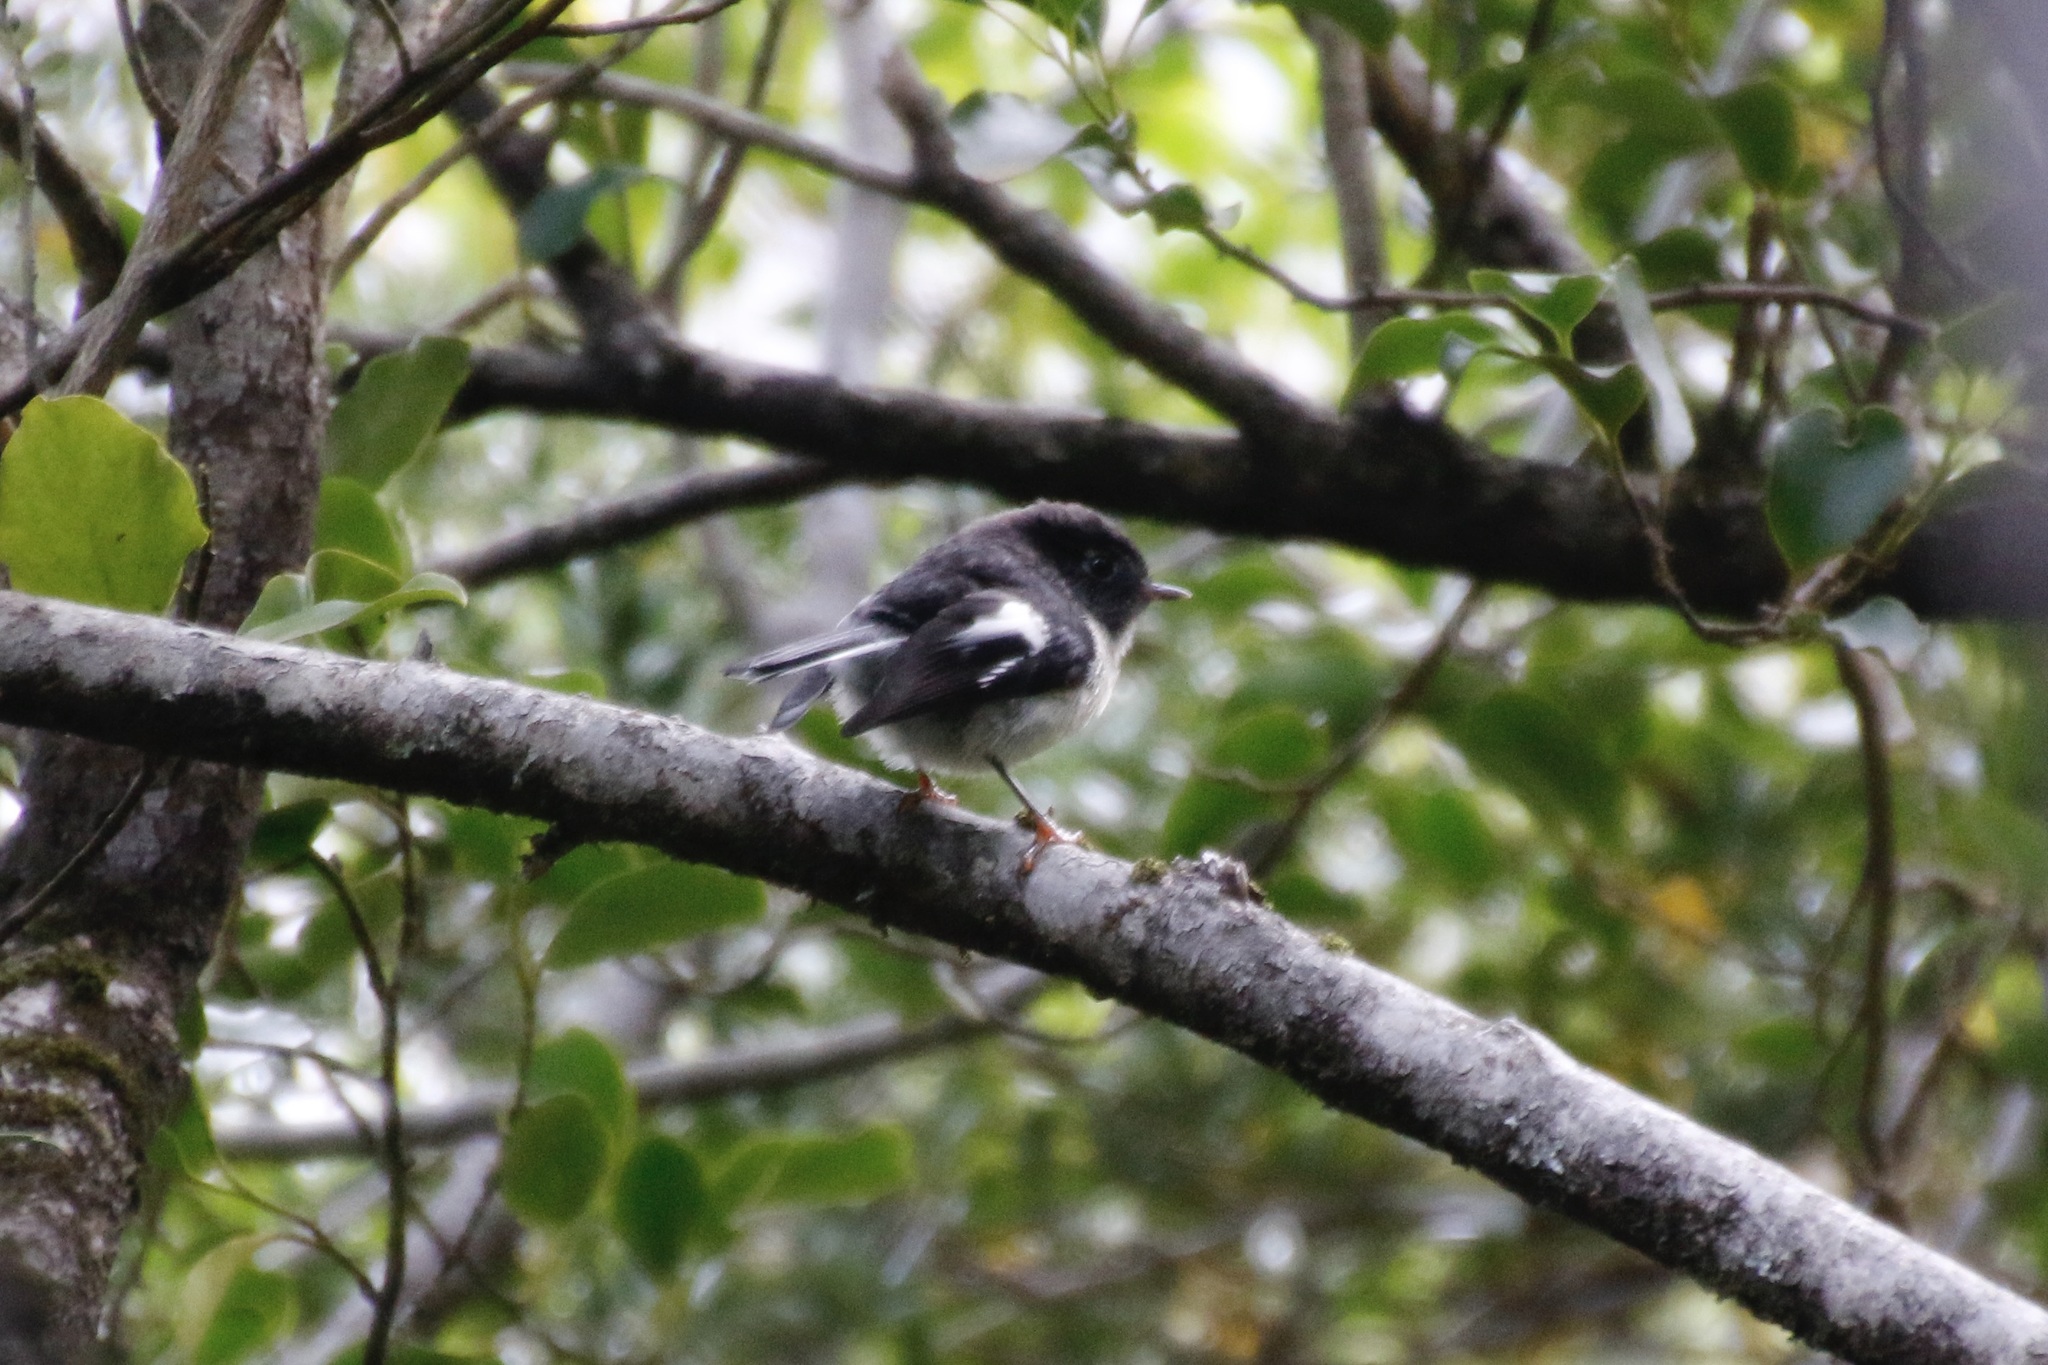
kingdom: Animalia
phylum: Chordata
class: Aves
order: Passeriformes
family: Petroicidae
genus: Petroica
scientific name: Petroica macrocephala
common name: Tomtit
